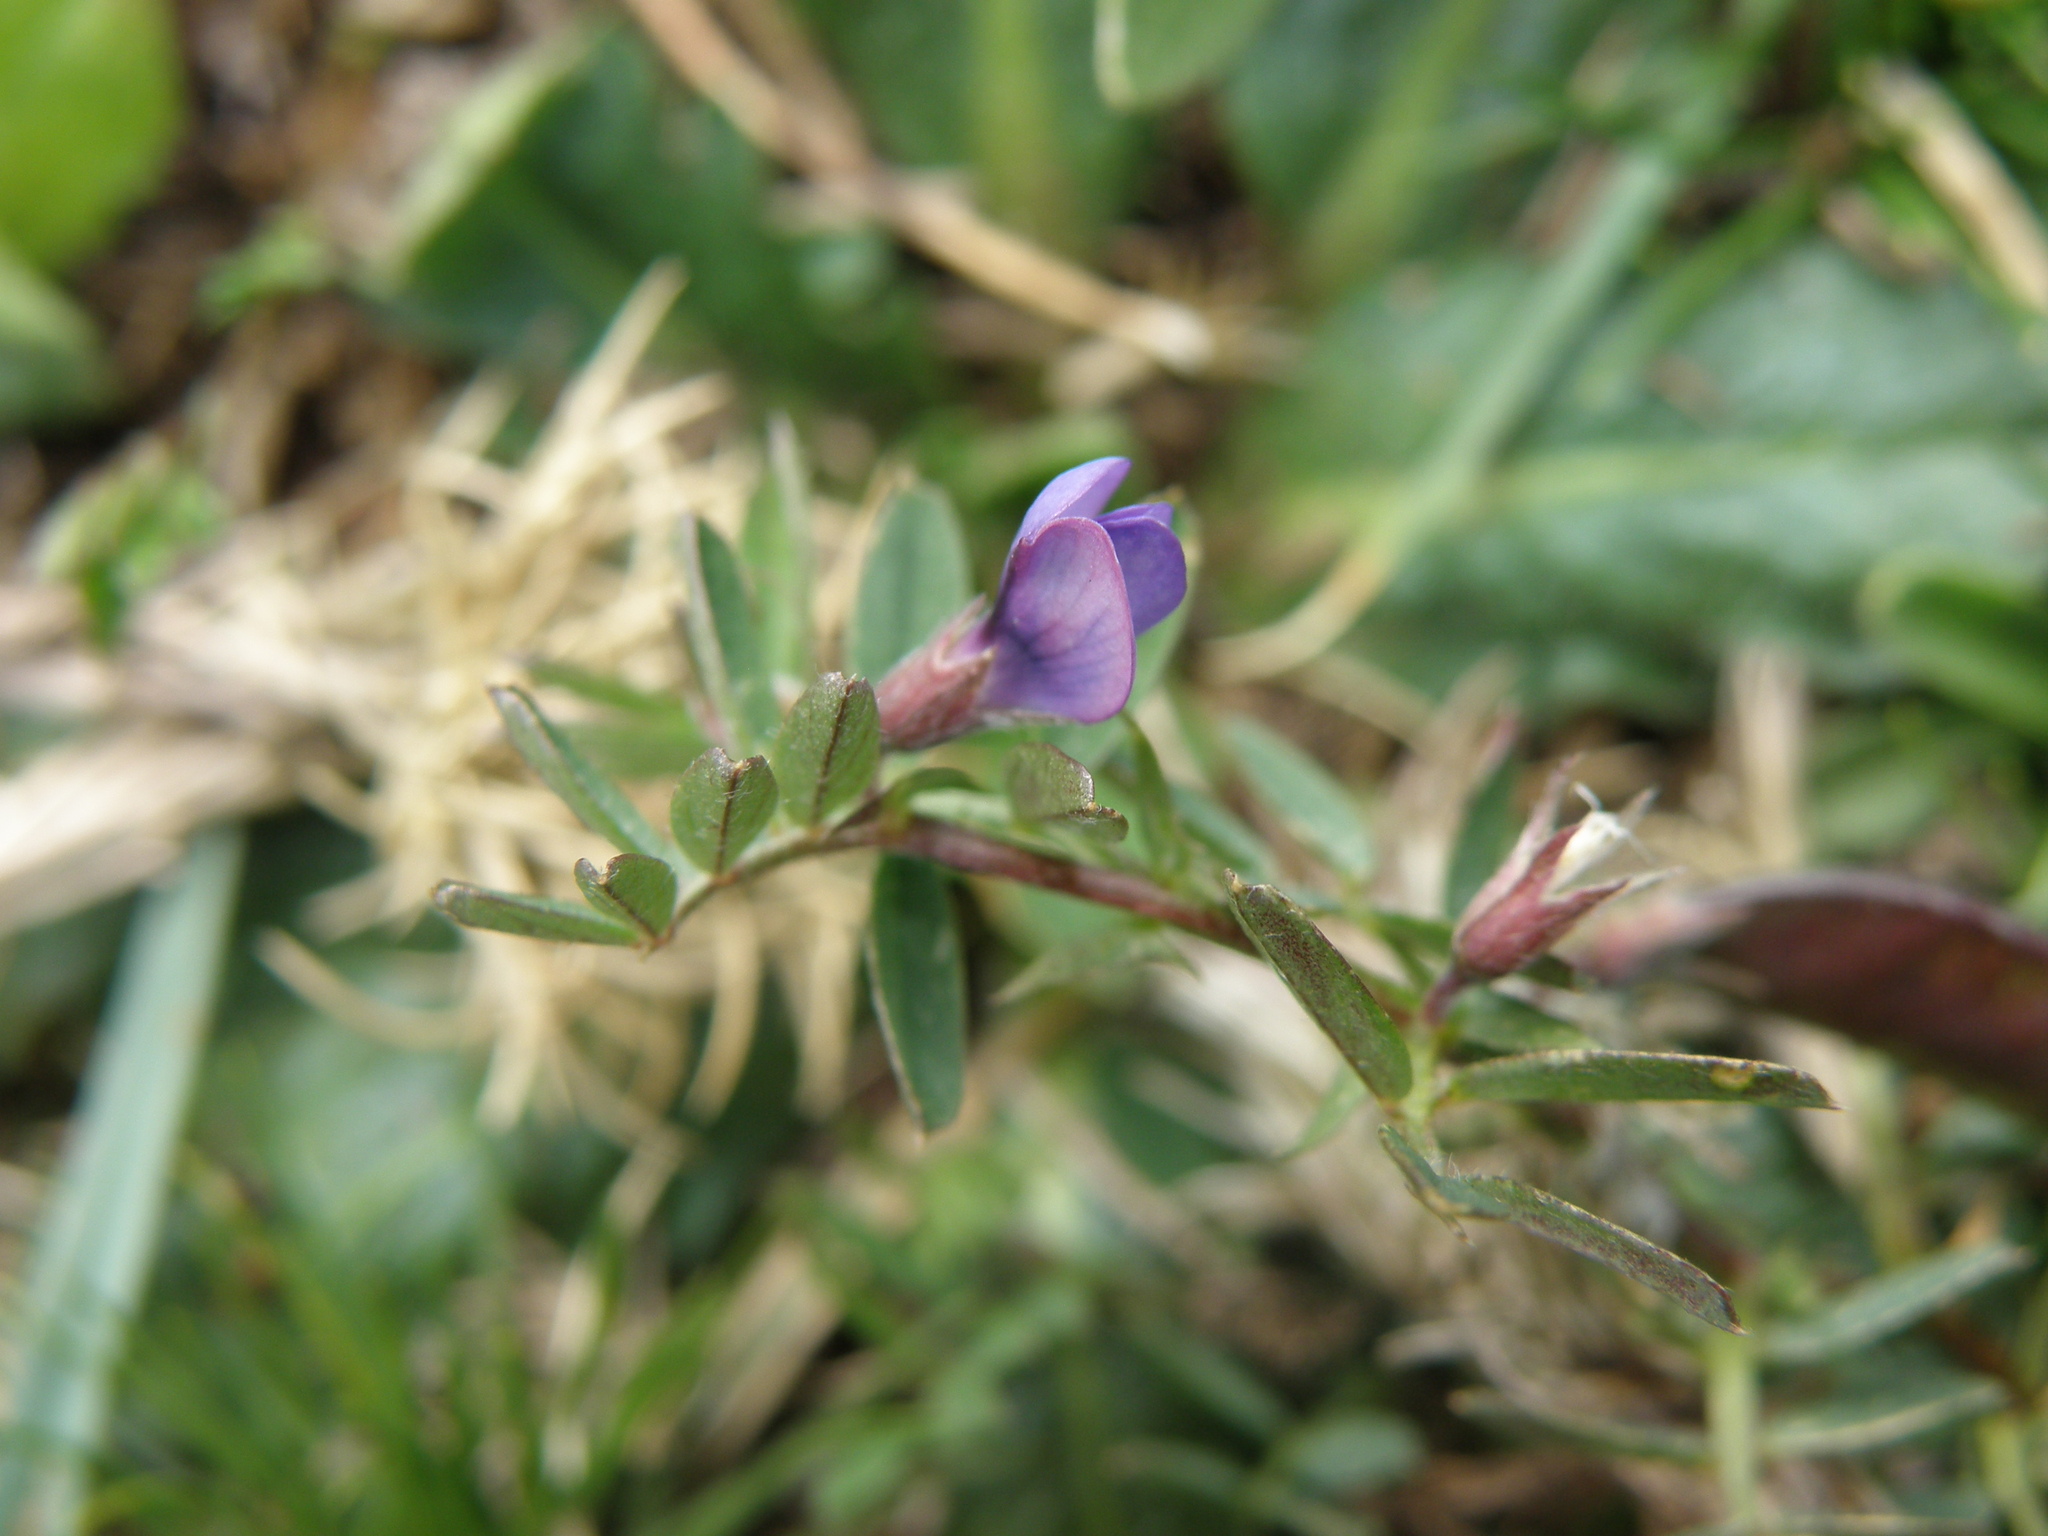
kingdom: Plantae
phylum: Tracheophyta
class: Magnoliopsida
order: Fabales
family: Fabaceae
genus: Vicia
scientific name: Vicia peruviana
